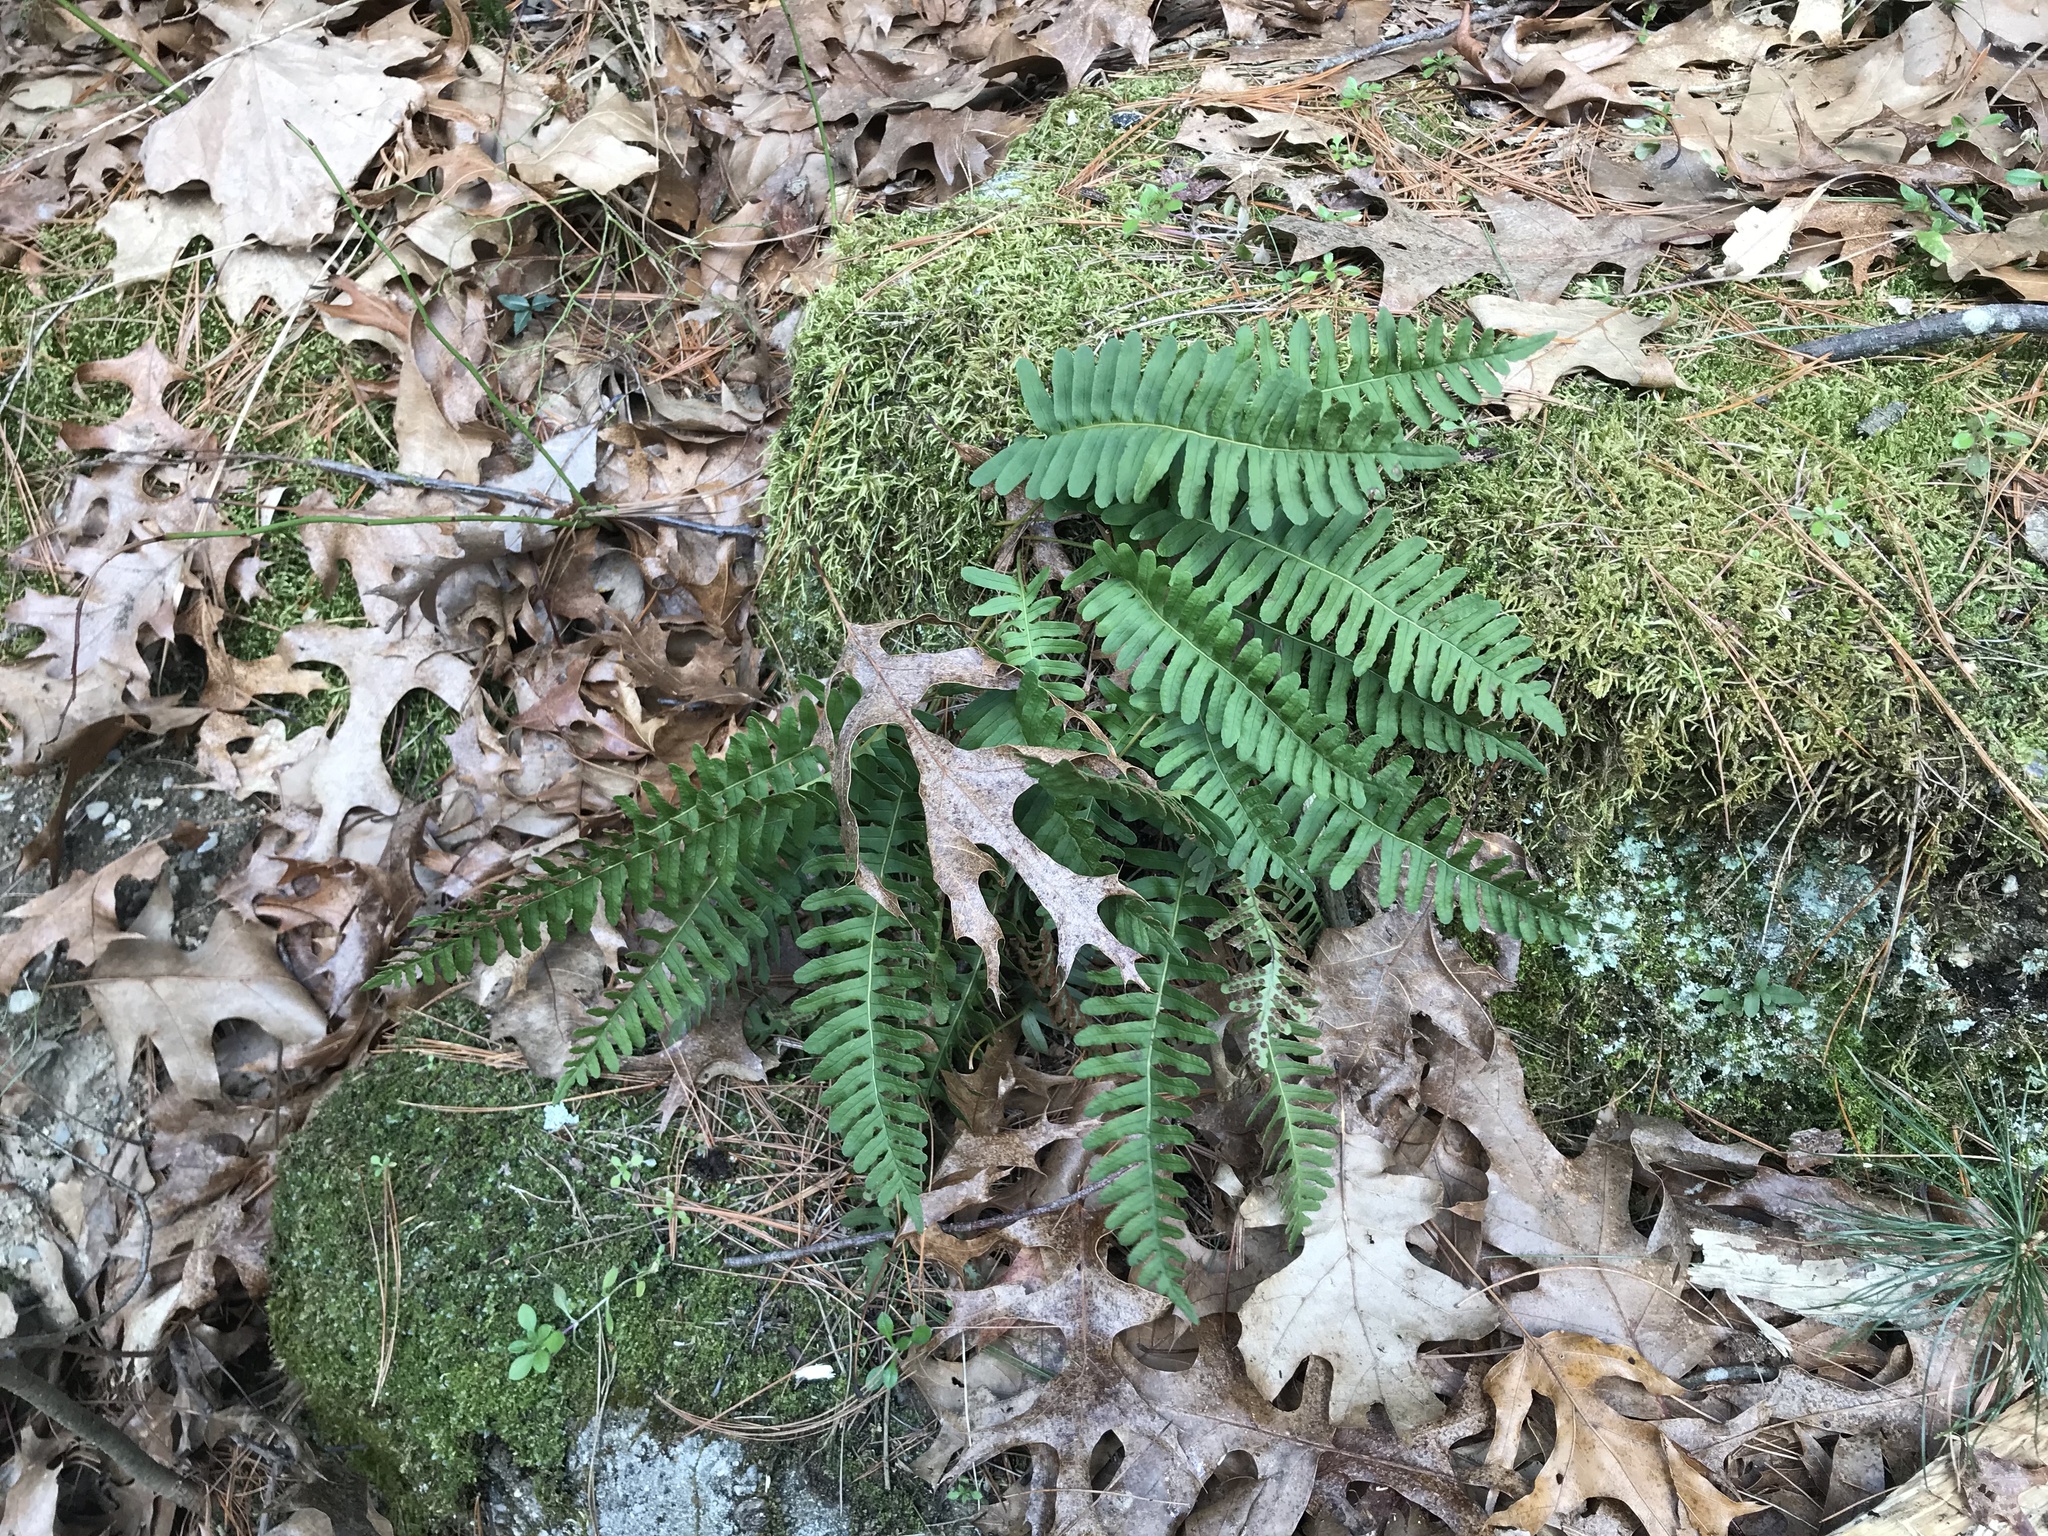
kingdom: Plantae
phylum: Tracheophyta
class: Polypodiopsida
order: Polypodiales
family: Polypodiaceae
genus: Polypodium
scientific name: Polypodium virginianum
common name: American wall fern
